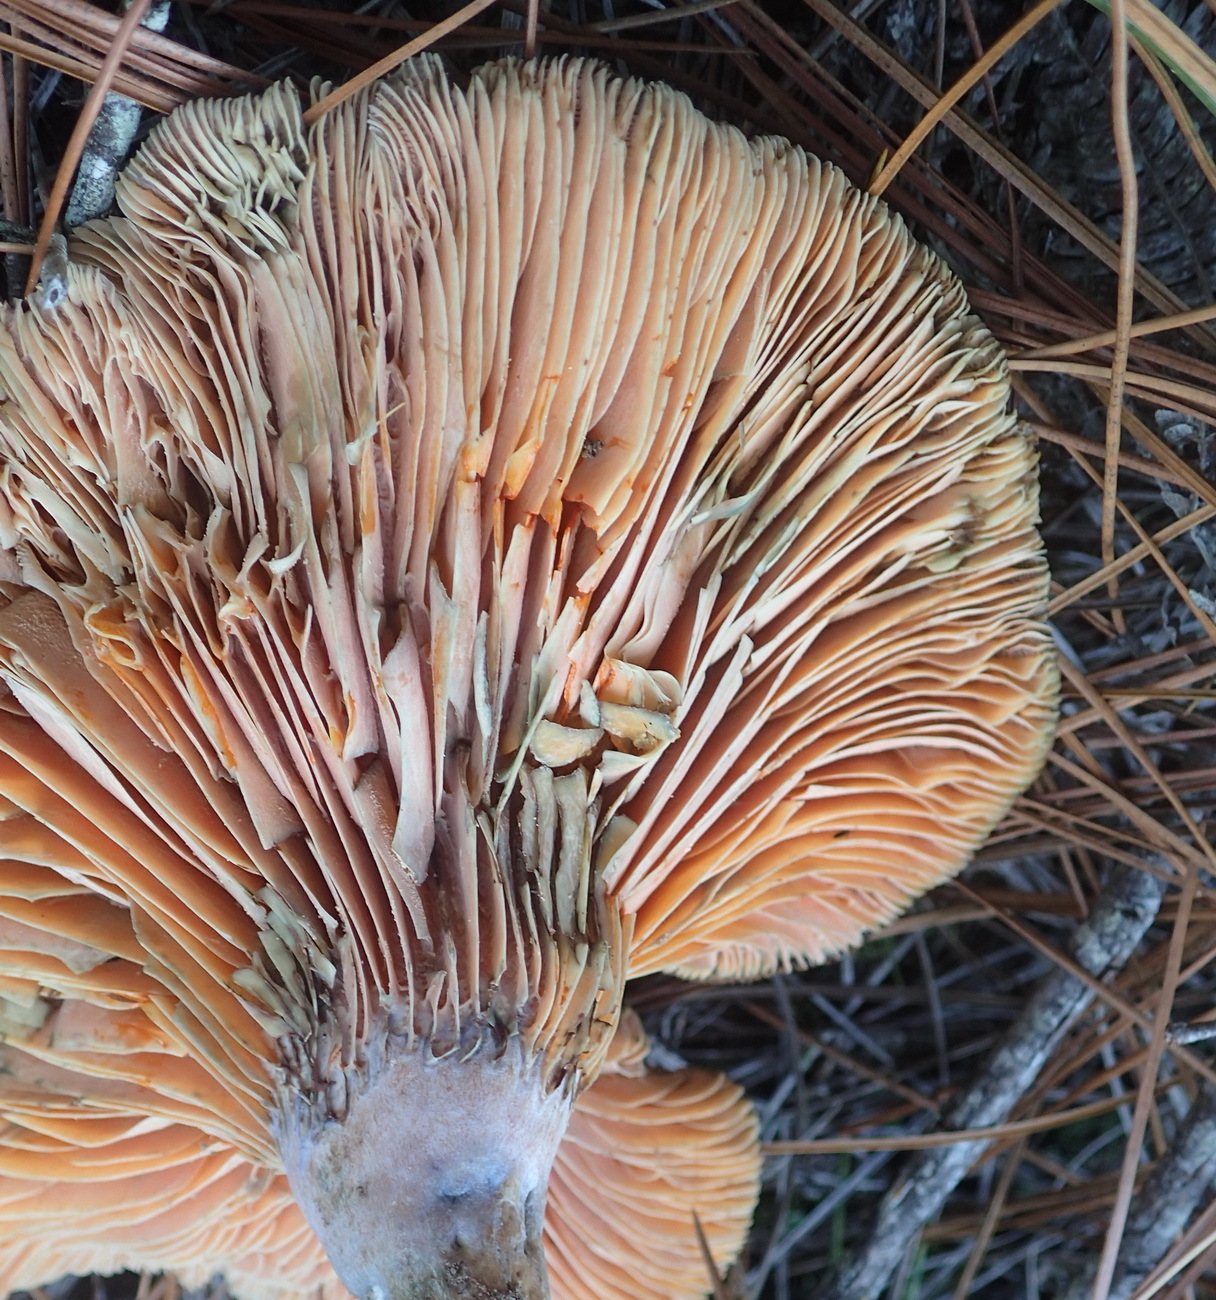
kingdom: Fungi
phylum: Basidiomycota
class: Agaricomycetes
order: Russulales
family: Russulaceae
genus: Lactarius
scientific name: Lactarius deliciosus
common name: Saffron milk-cap
